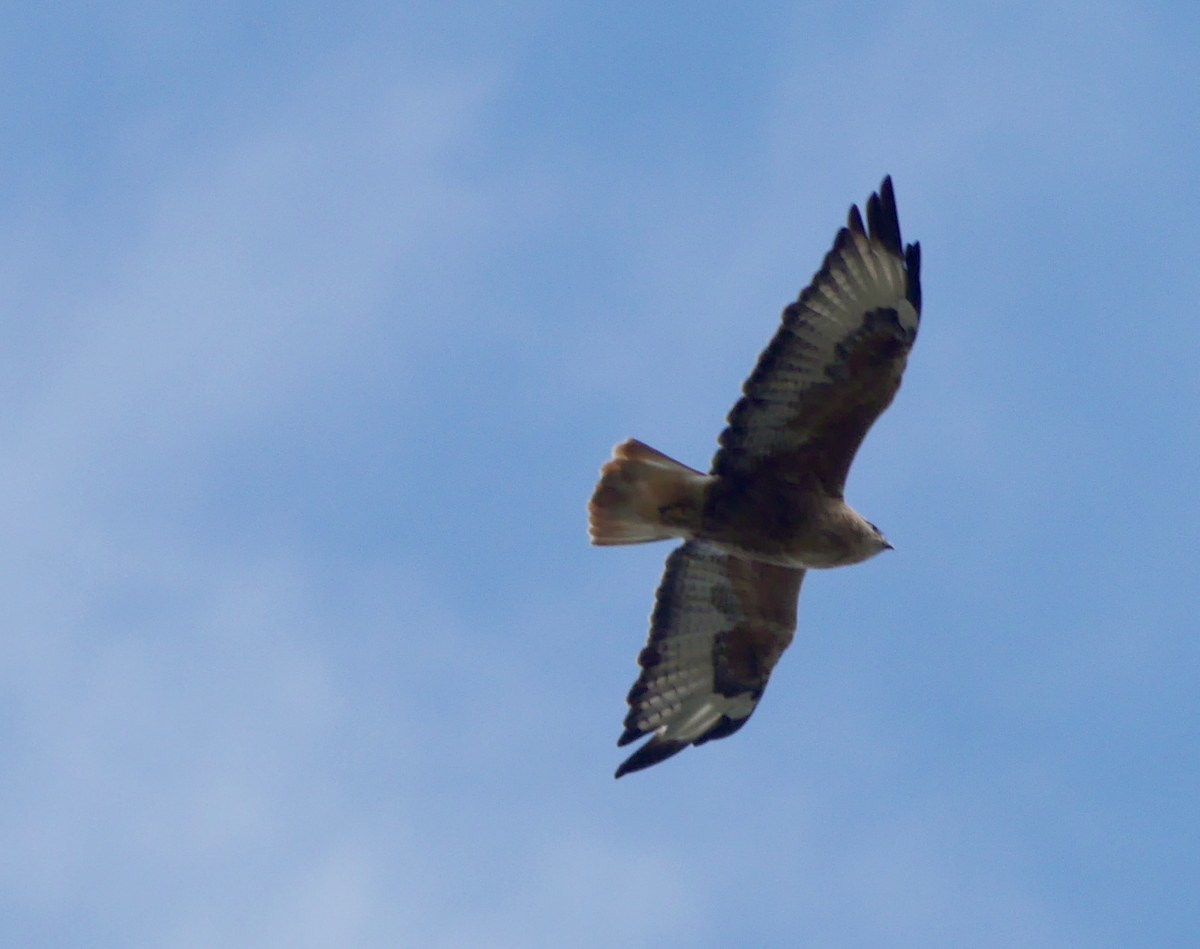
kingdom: Animalia
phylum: Chordata
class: Aves
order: Accipitriformes
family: Accipitridae
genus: Buteo
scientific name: Buteo rufinus
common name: Long-legged buzzard
